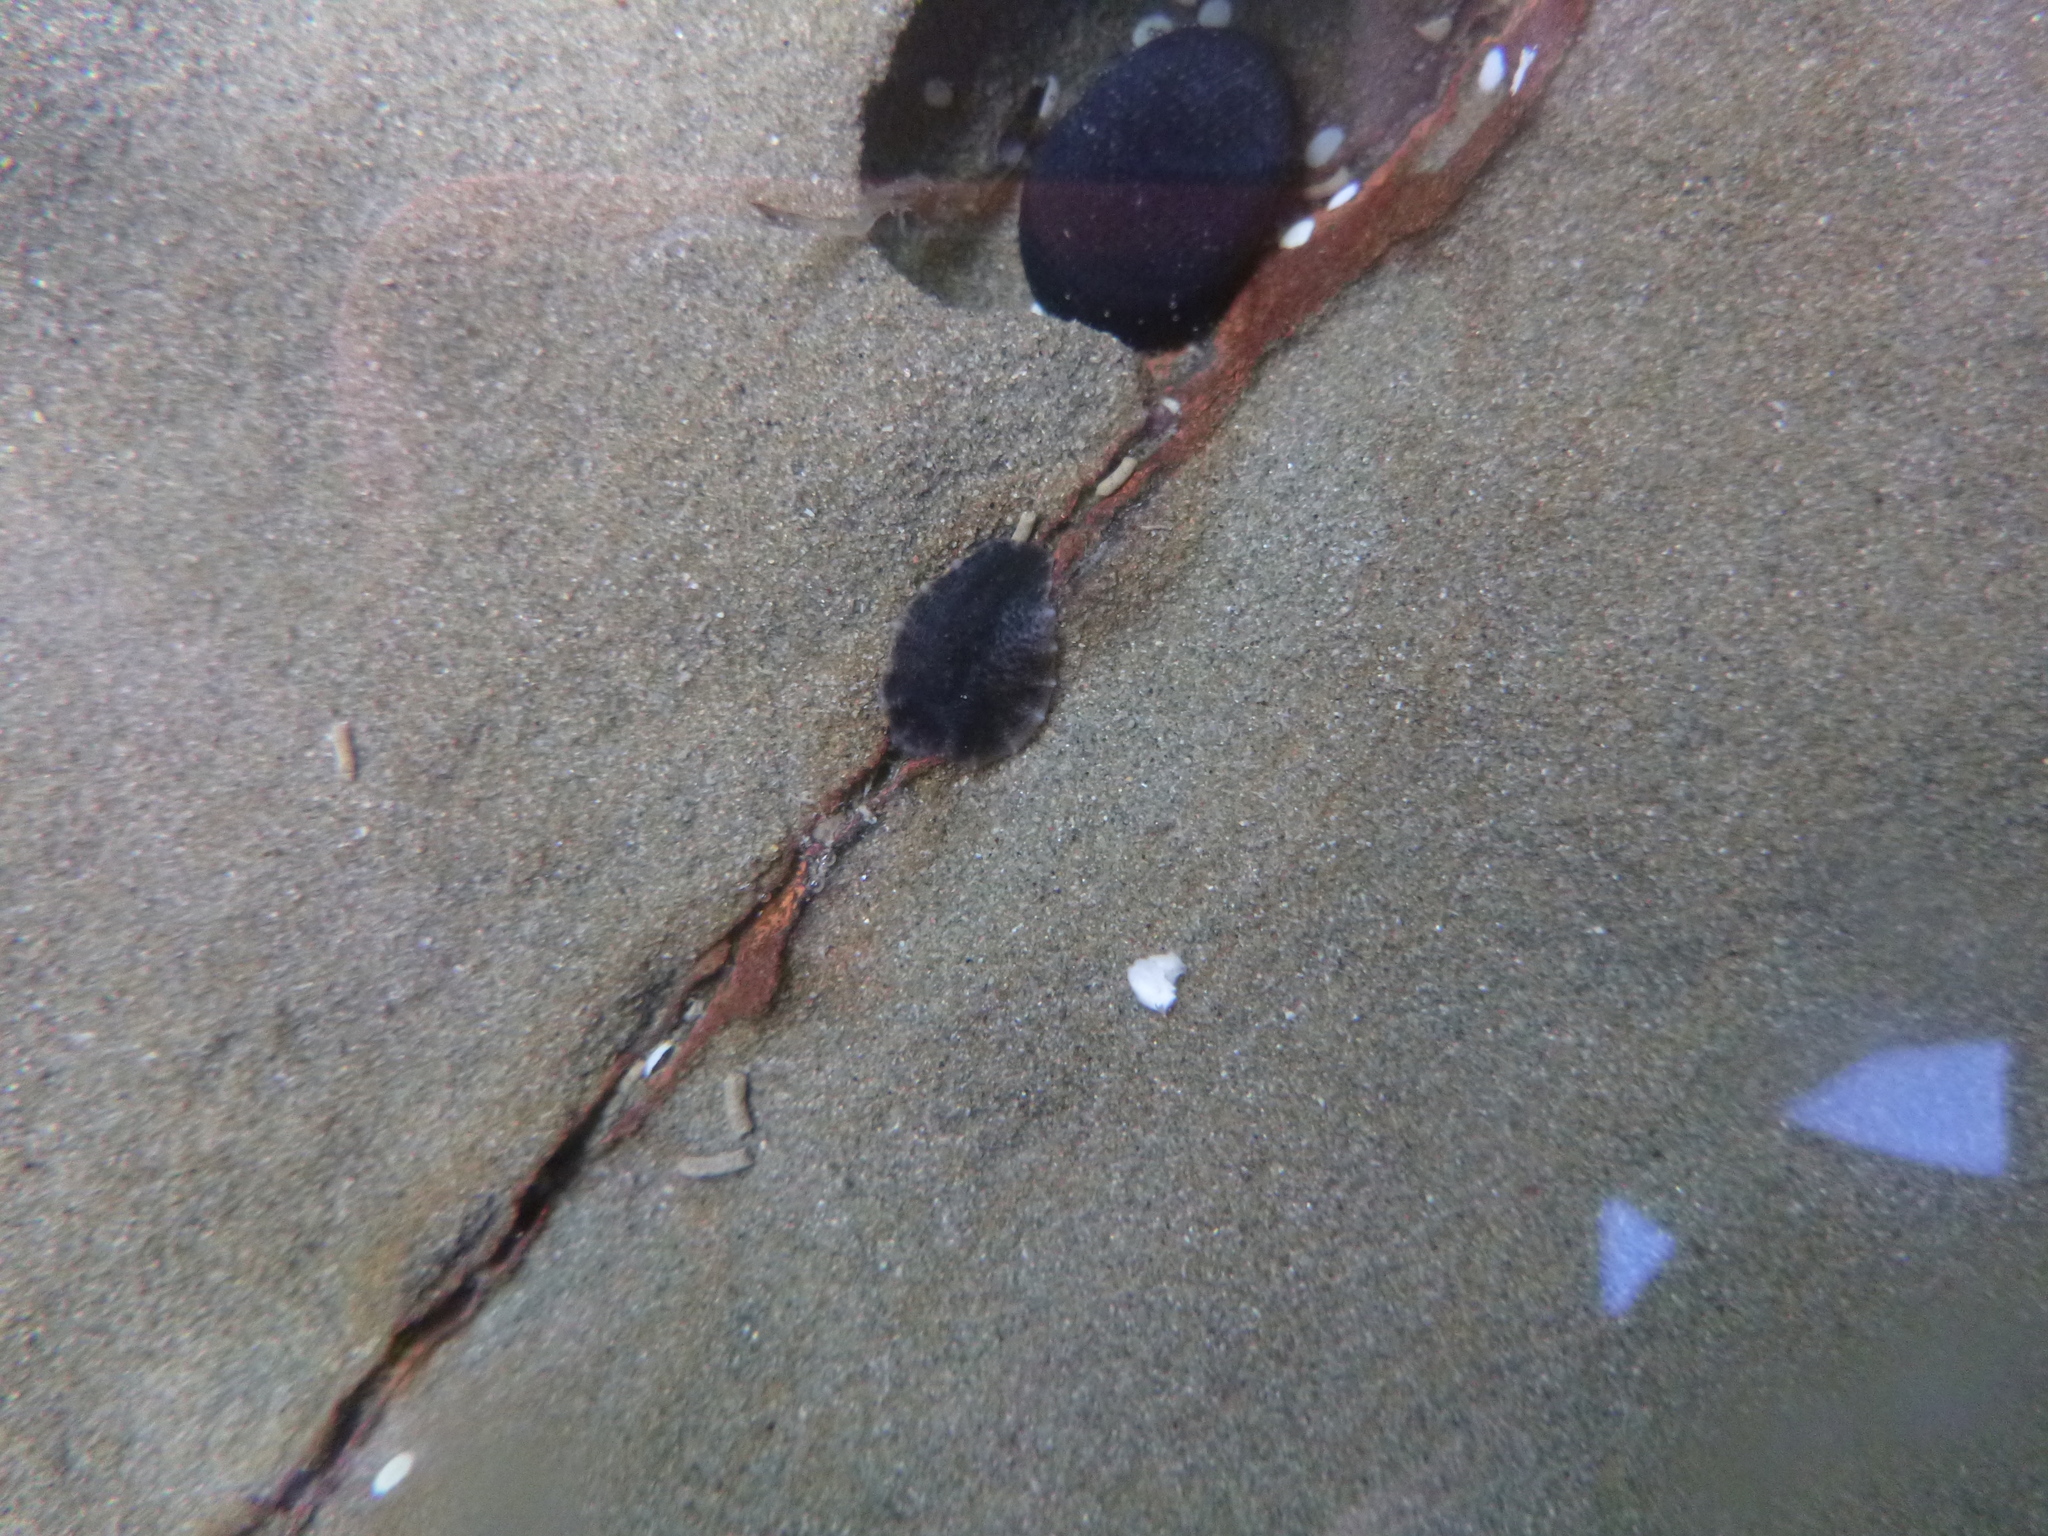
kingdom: Animalia
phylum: Mollusca
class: Gastropoda
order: Systellommatophora
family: Onchidiidae
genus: Onchidella
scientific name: Onchidella nigricans
